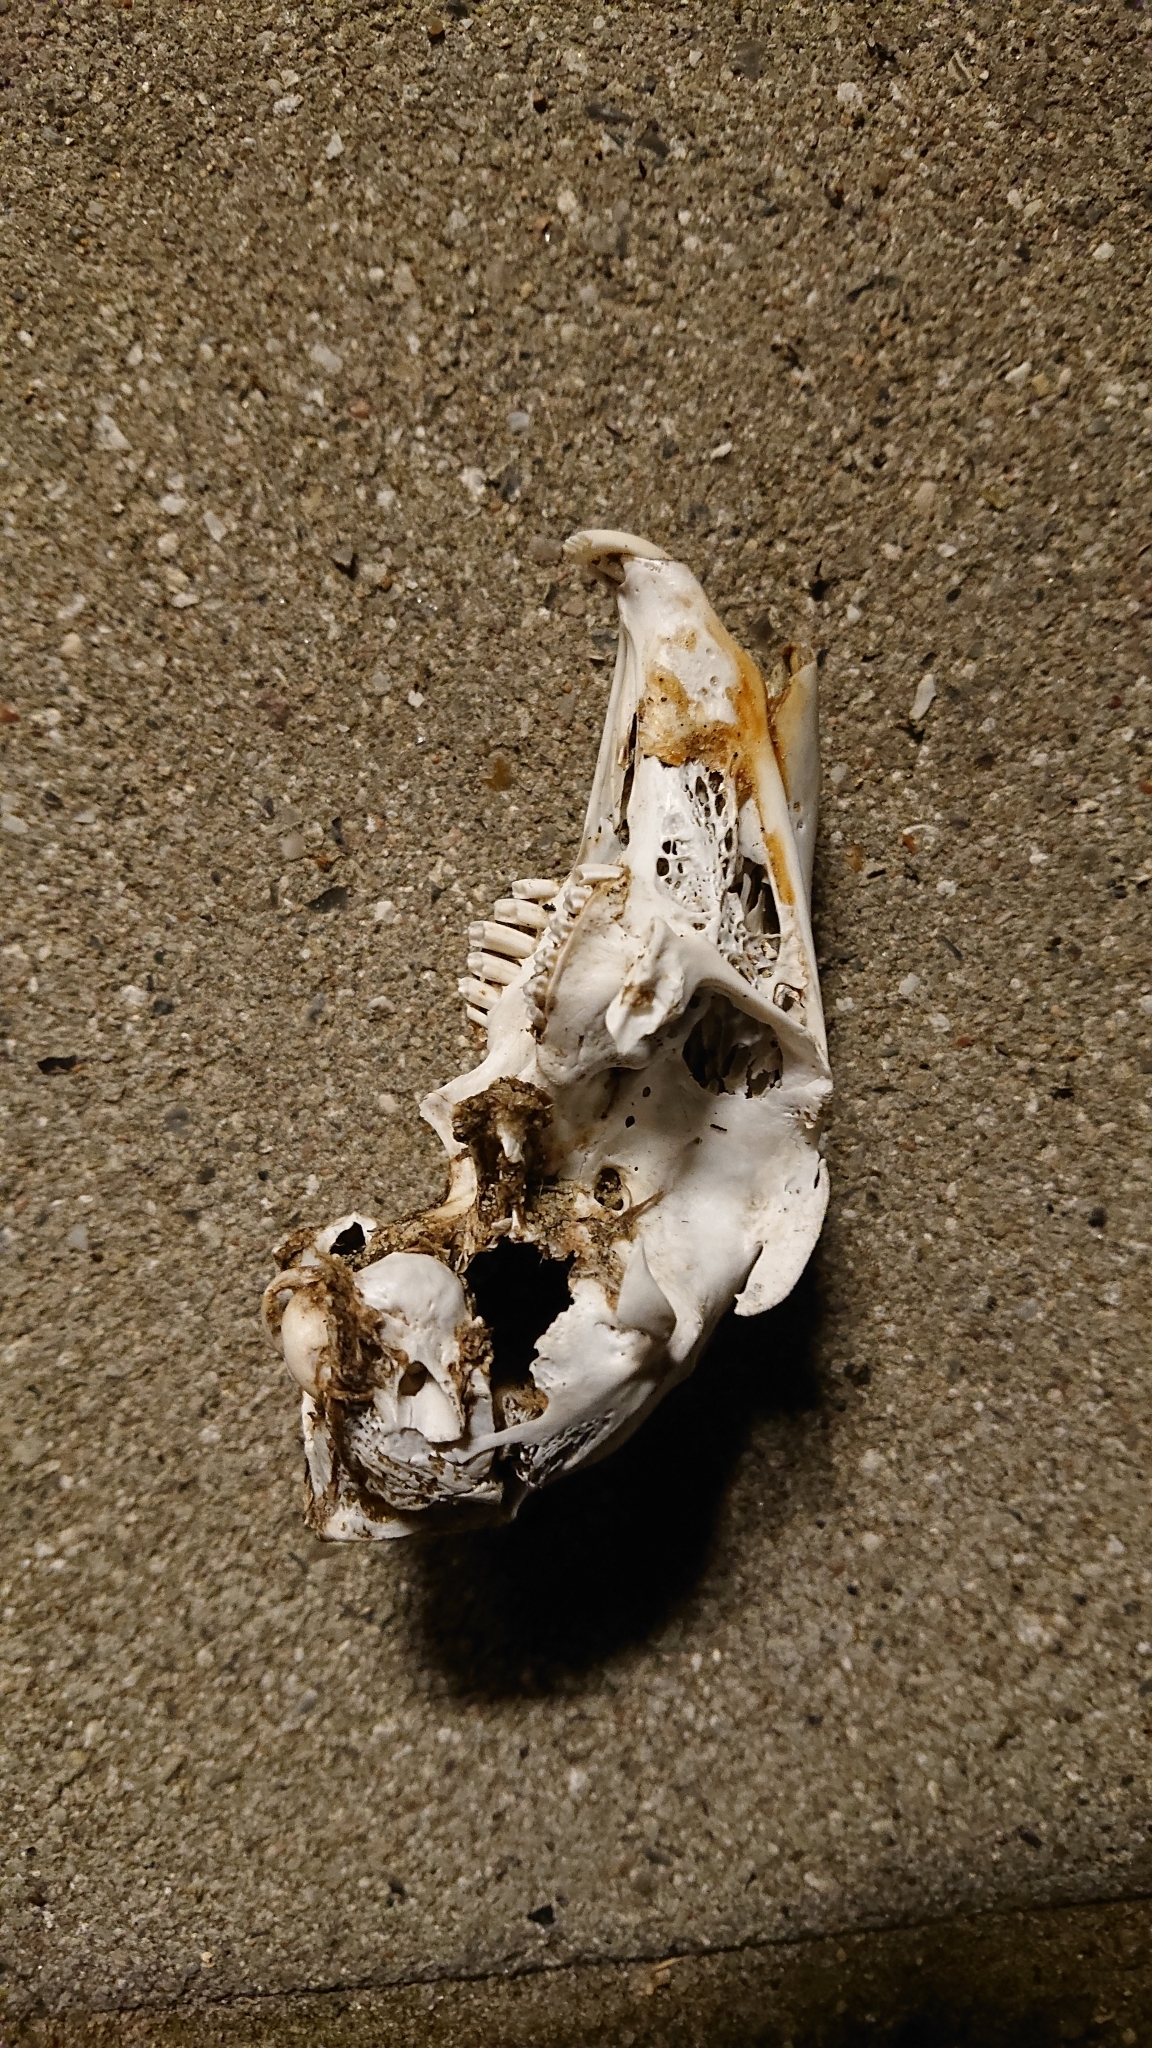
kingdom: Animalia
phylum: Chordata
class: Mammalia
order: Lagomorpha
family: Leporidae
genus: Lepus
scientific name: Lepus europaeus
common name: European hare
